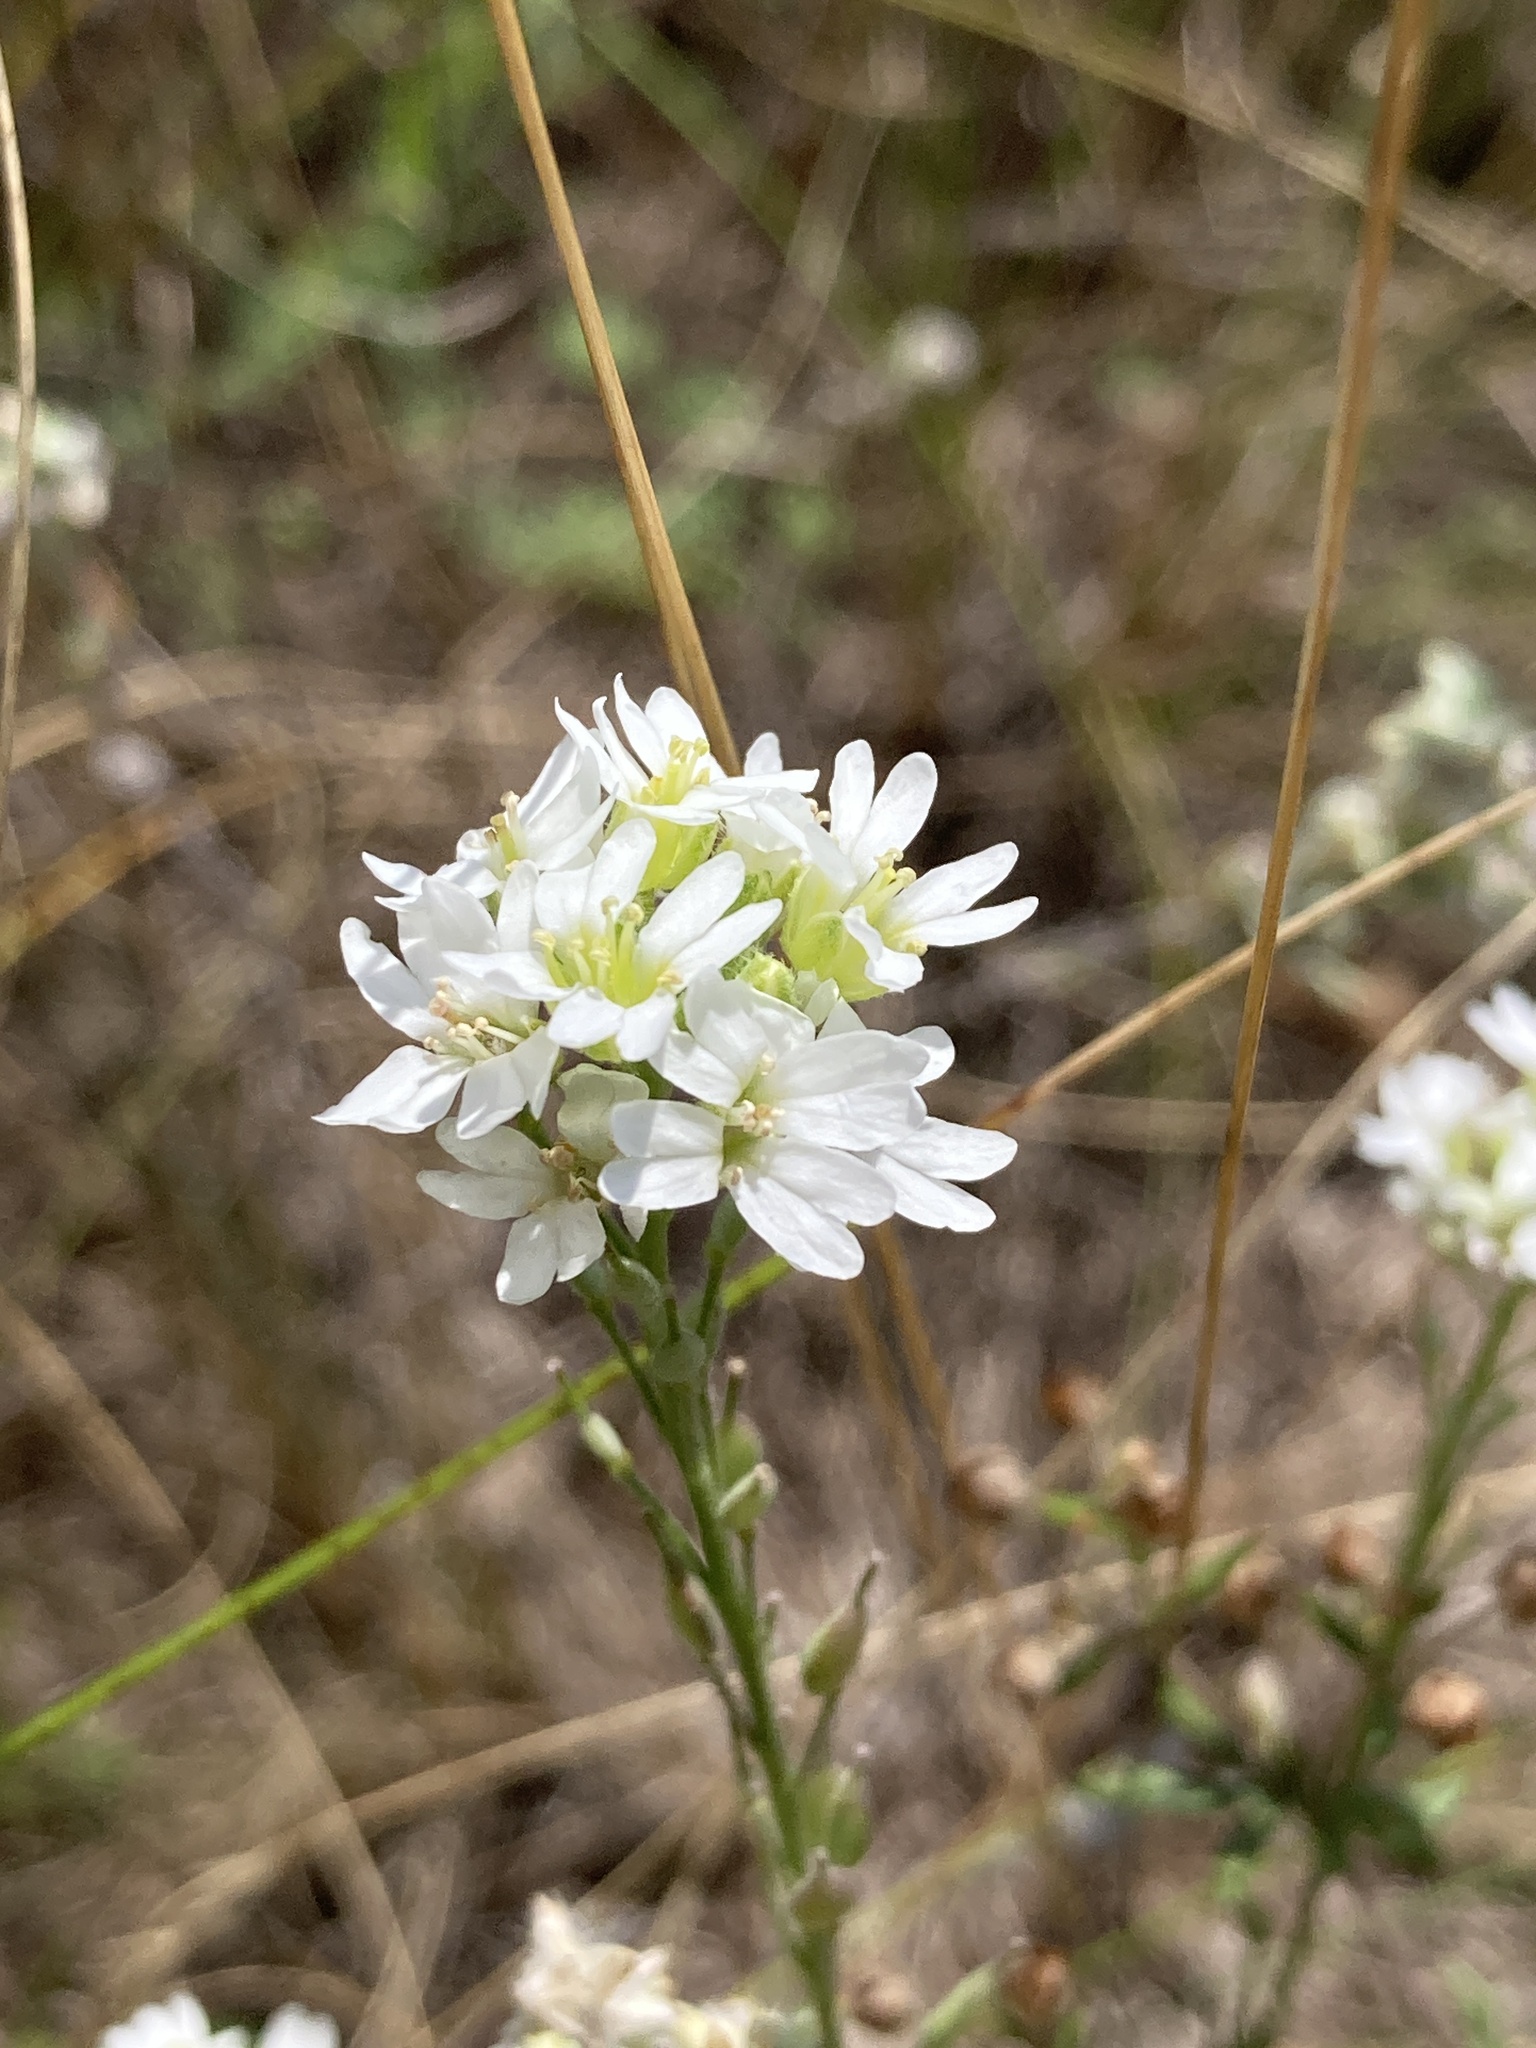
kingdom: Plantae
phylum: Tracheophyta
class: Magnoliopsida
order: Brassicales
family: Brassicaceae
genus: Berteroa
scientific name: Berteroa incana
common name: Hoary alison
